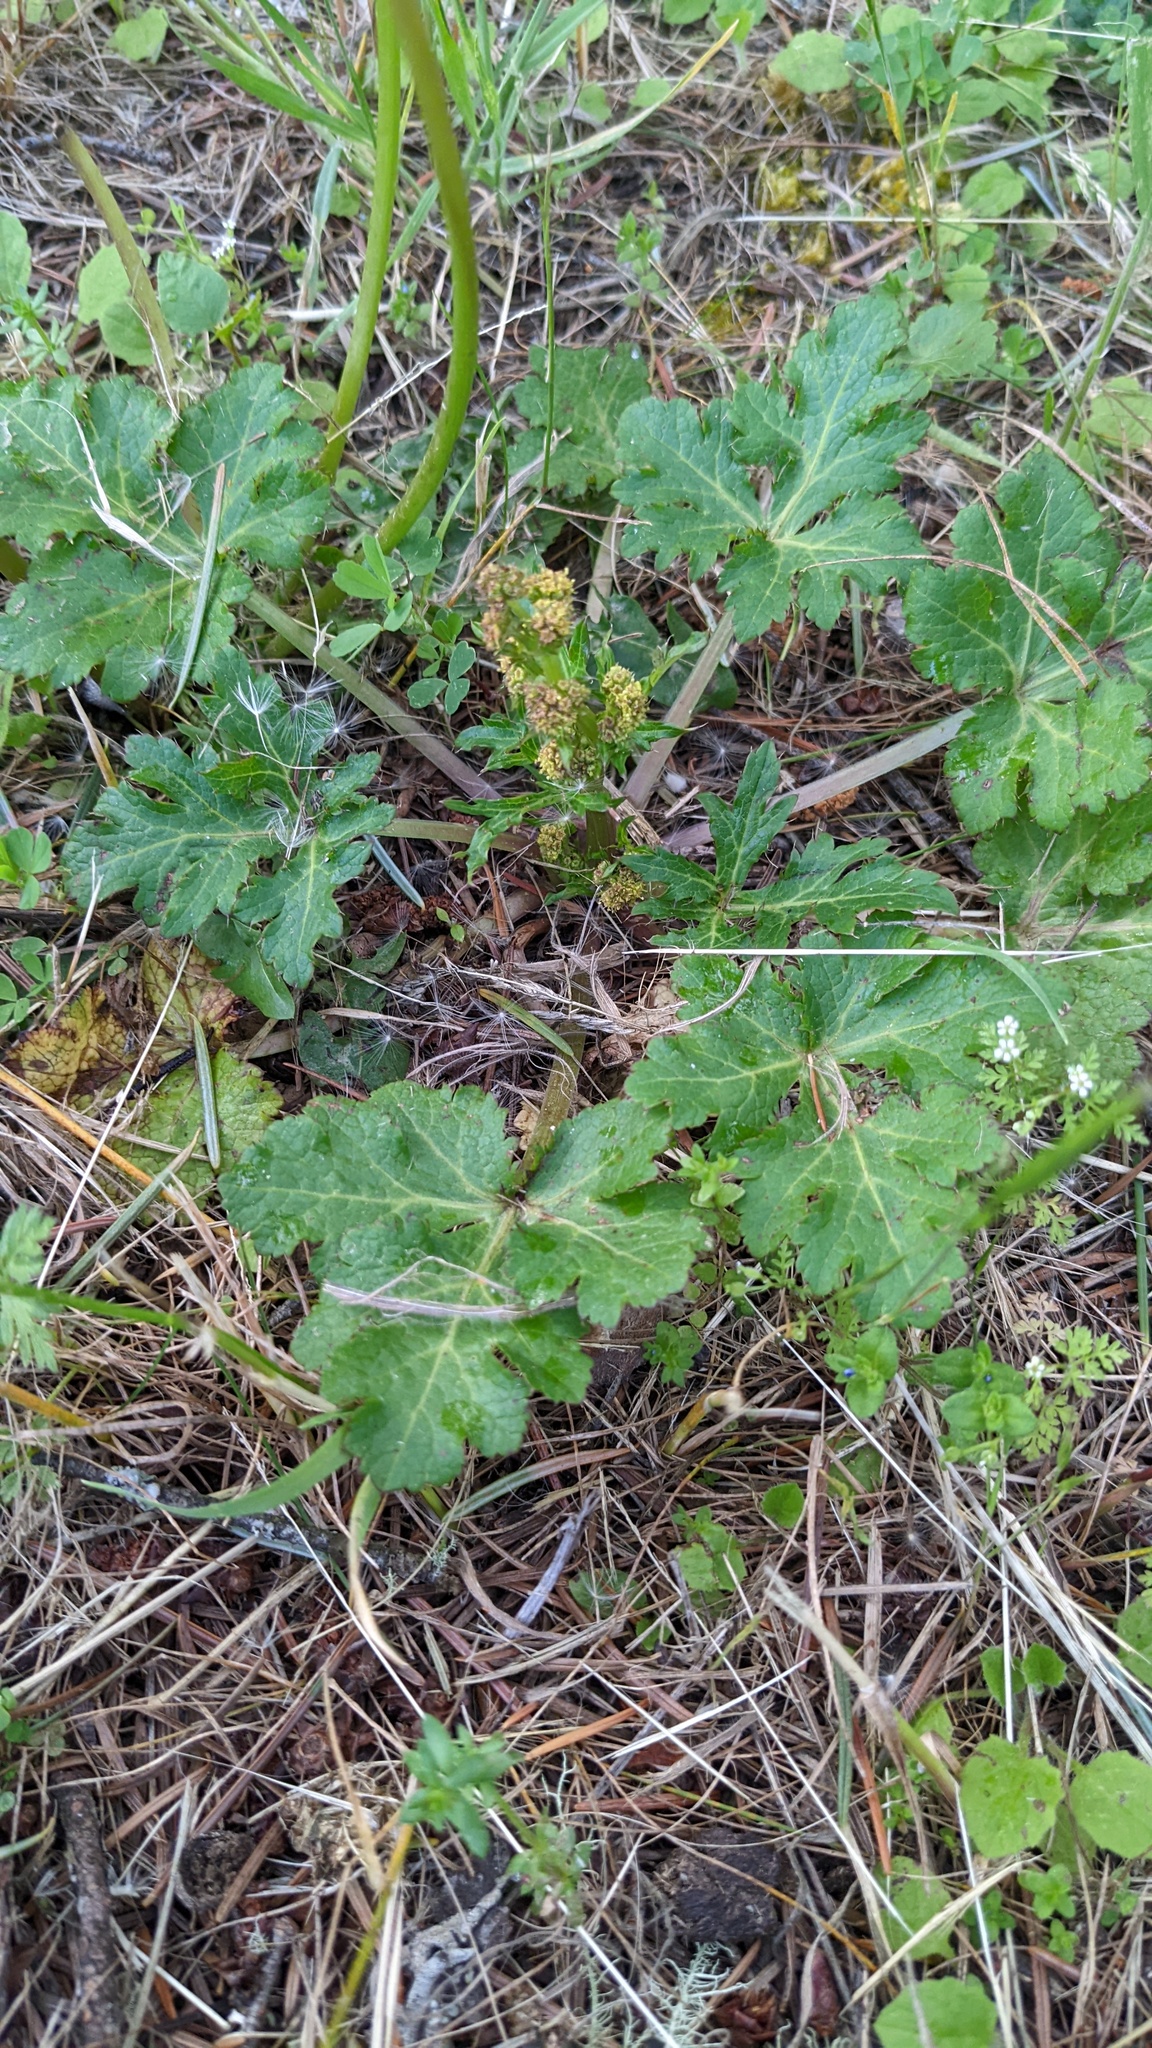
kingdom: Plantae
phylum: Tracheophyta
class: Magnoliopsida
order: Apiales
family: Apiaceae
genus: Sanicula
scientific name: Sanicula crassicaulis
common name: Western snakeroot
